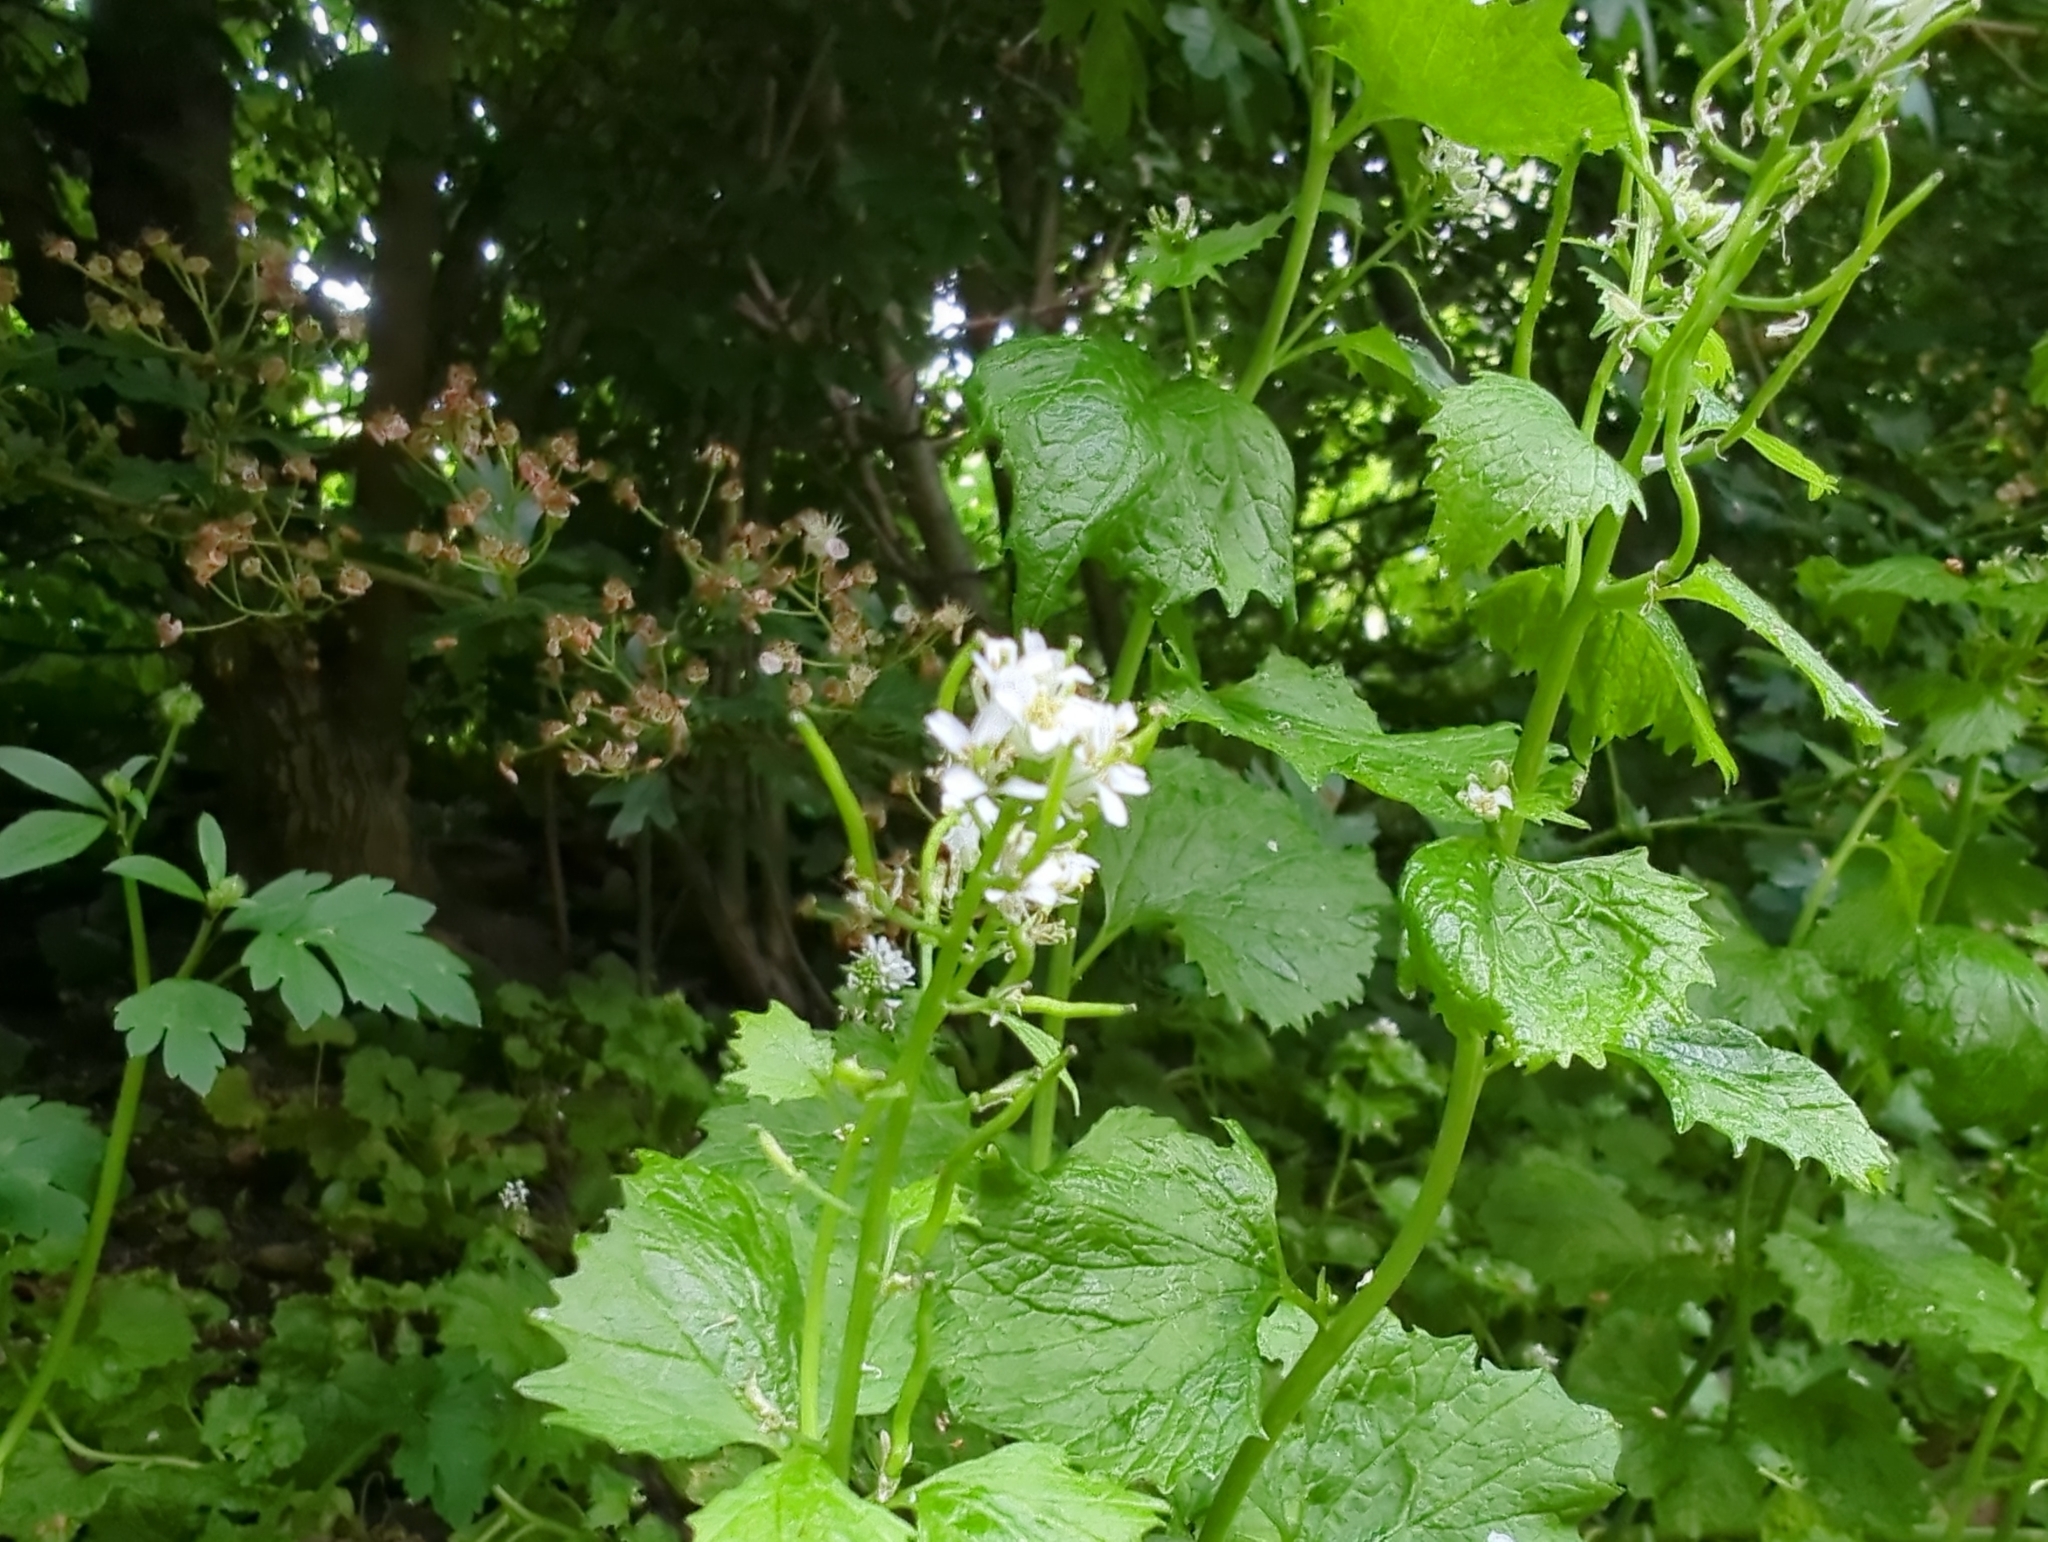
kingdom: Plantae
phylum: Tracheophyta
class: Magnoliopsida
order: Brassicales
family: Brassicaceae
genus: Alliaria
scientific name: Alliaria petiolata
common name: Garlic mustard
